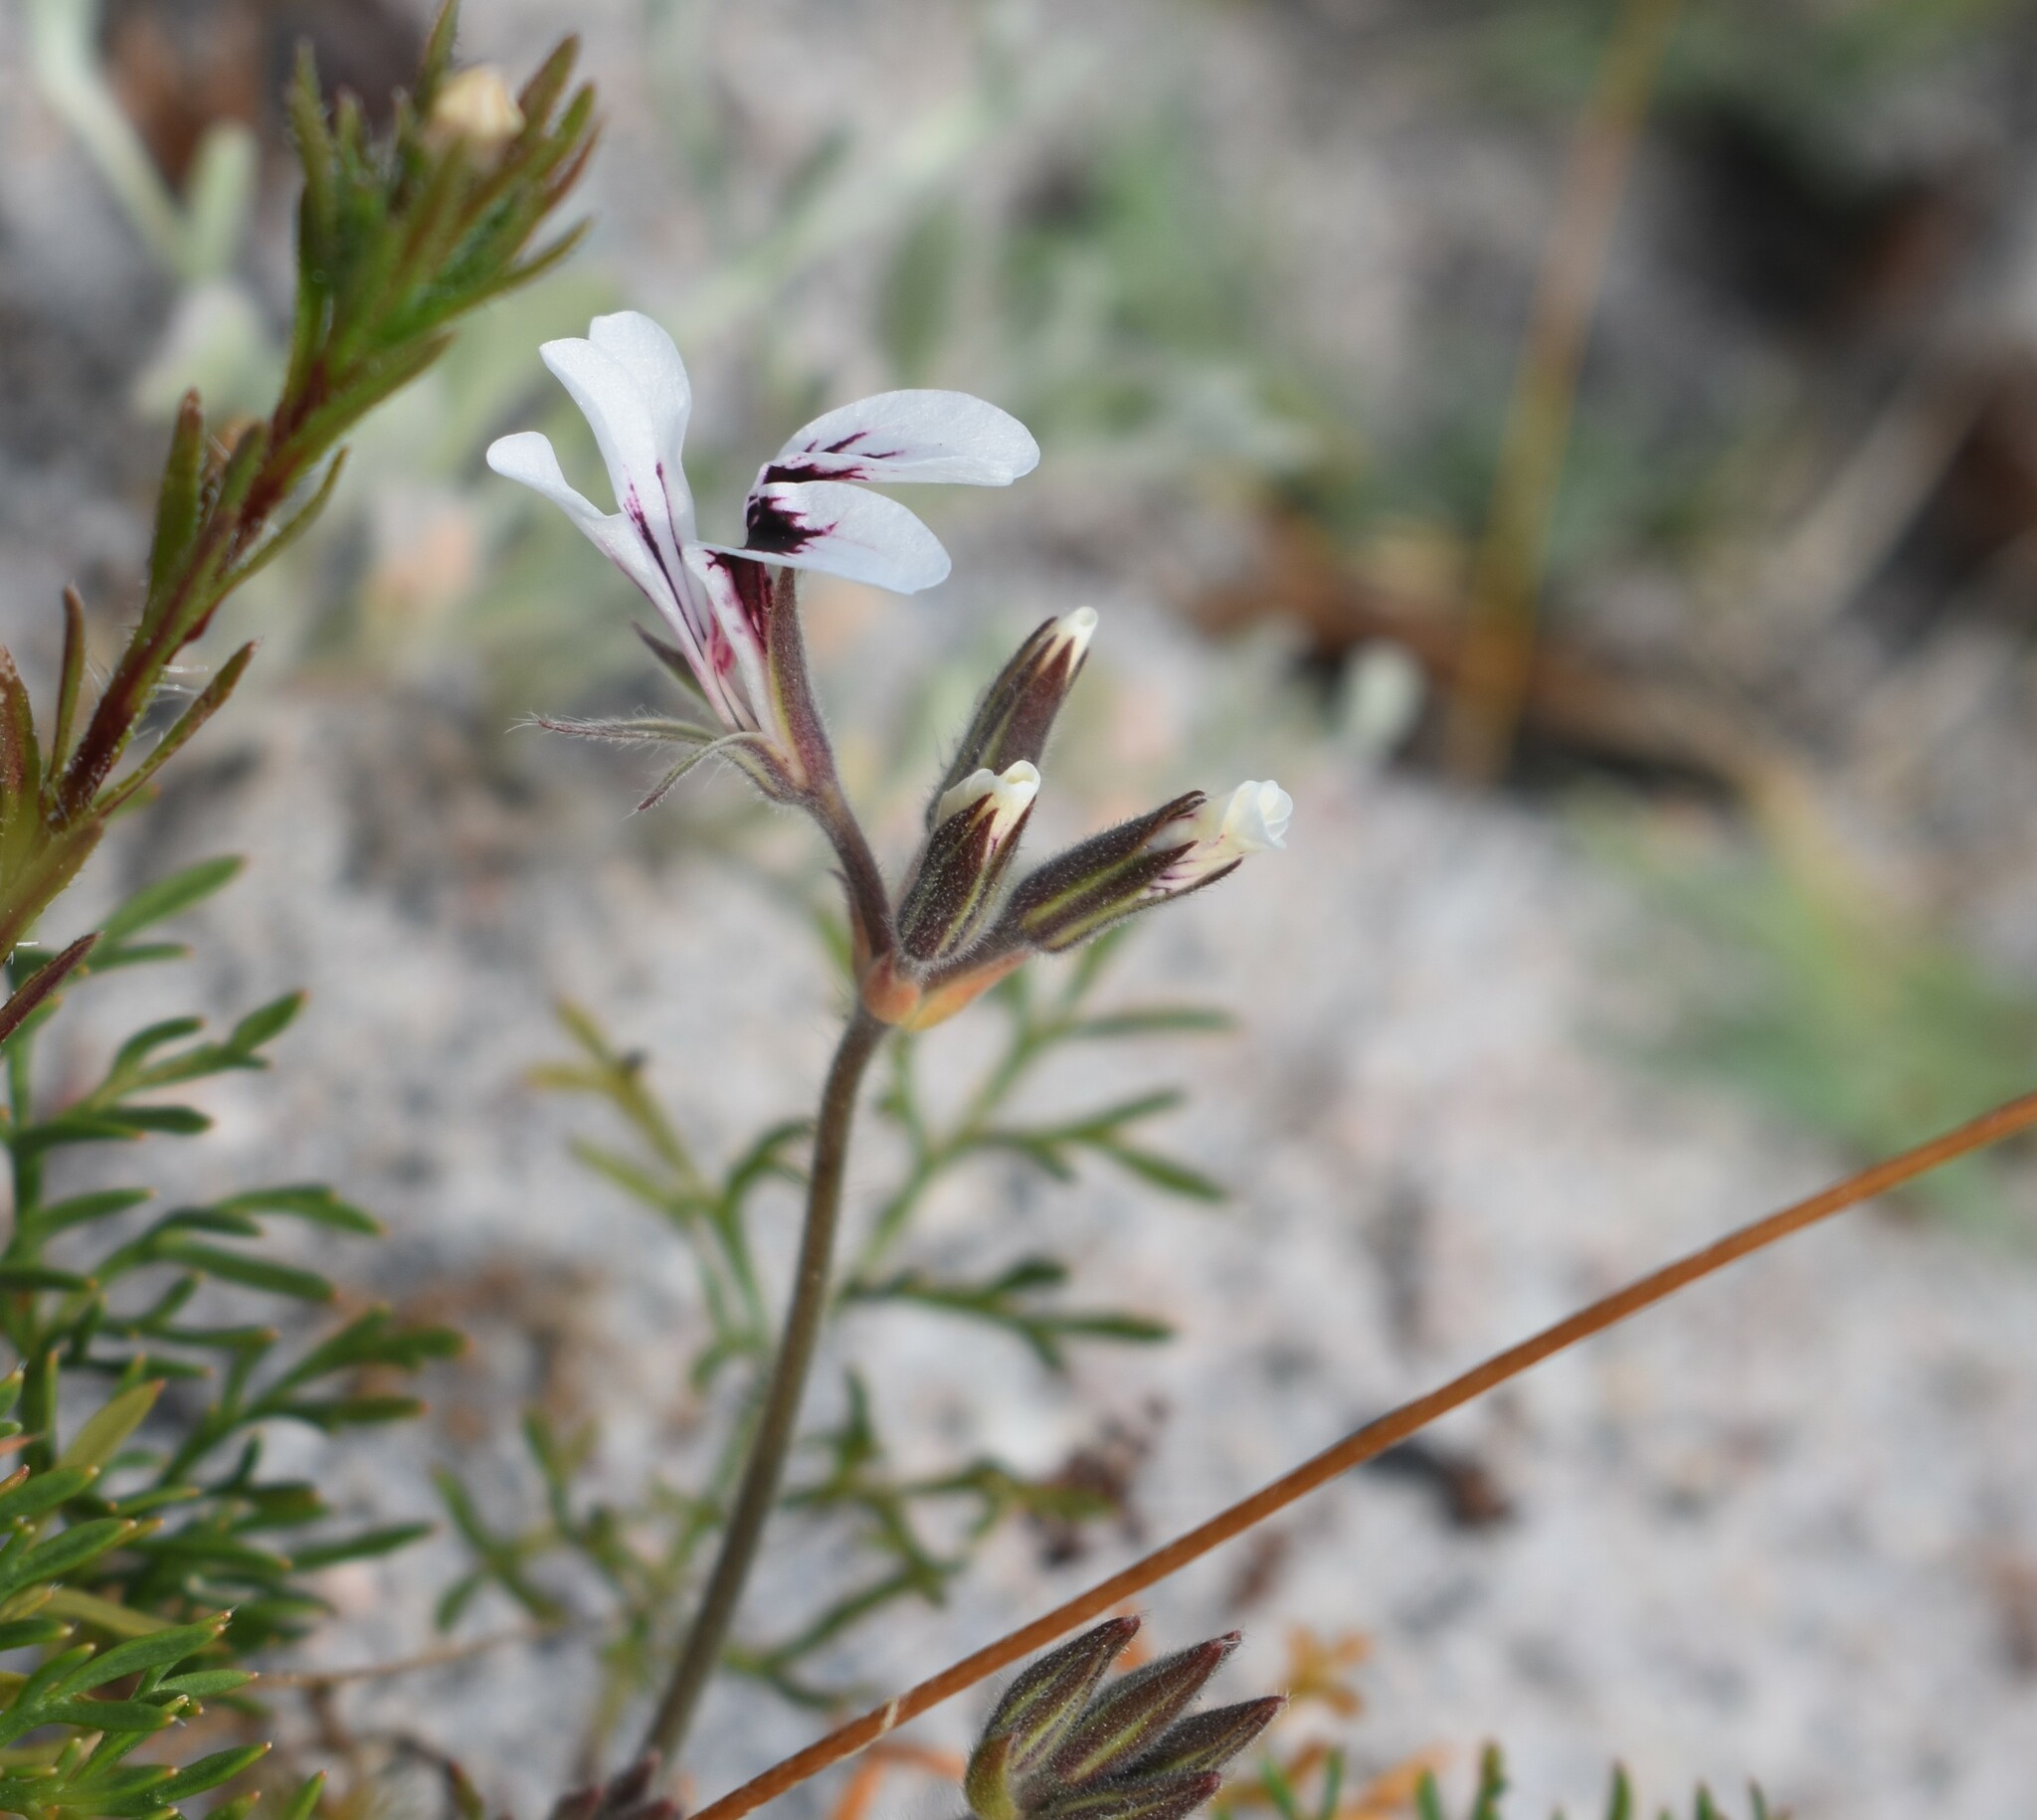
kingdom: Plantae
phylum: Tracheophyta
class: Magnoliopsida
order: Geraniales
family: Geraniaceae
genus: Pelargonium
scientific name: Pelargonium psammophilum
